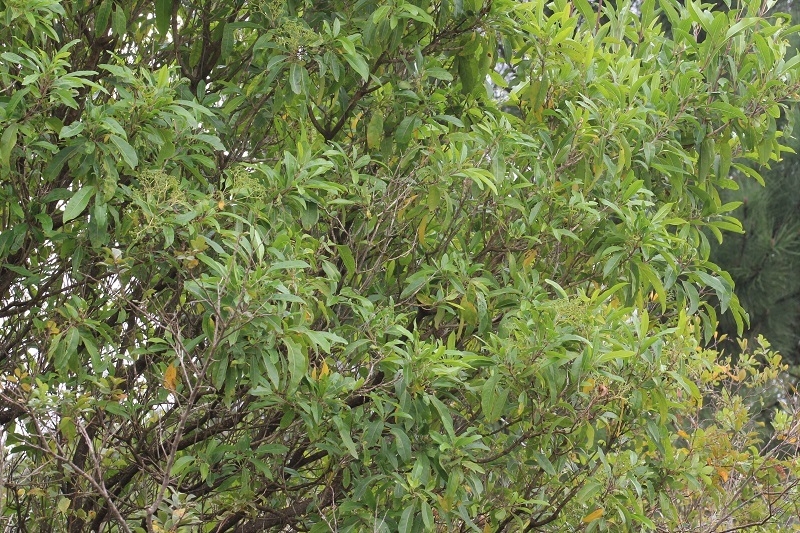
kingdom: Plantae
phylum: Tracheophyta
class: Magnoliopsida
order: Lamiales
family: Stilbaceae
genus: Nuxia
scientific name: Nuxia floribunda
